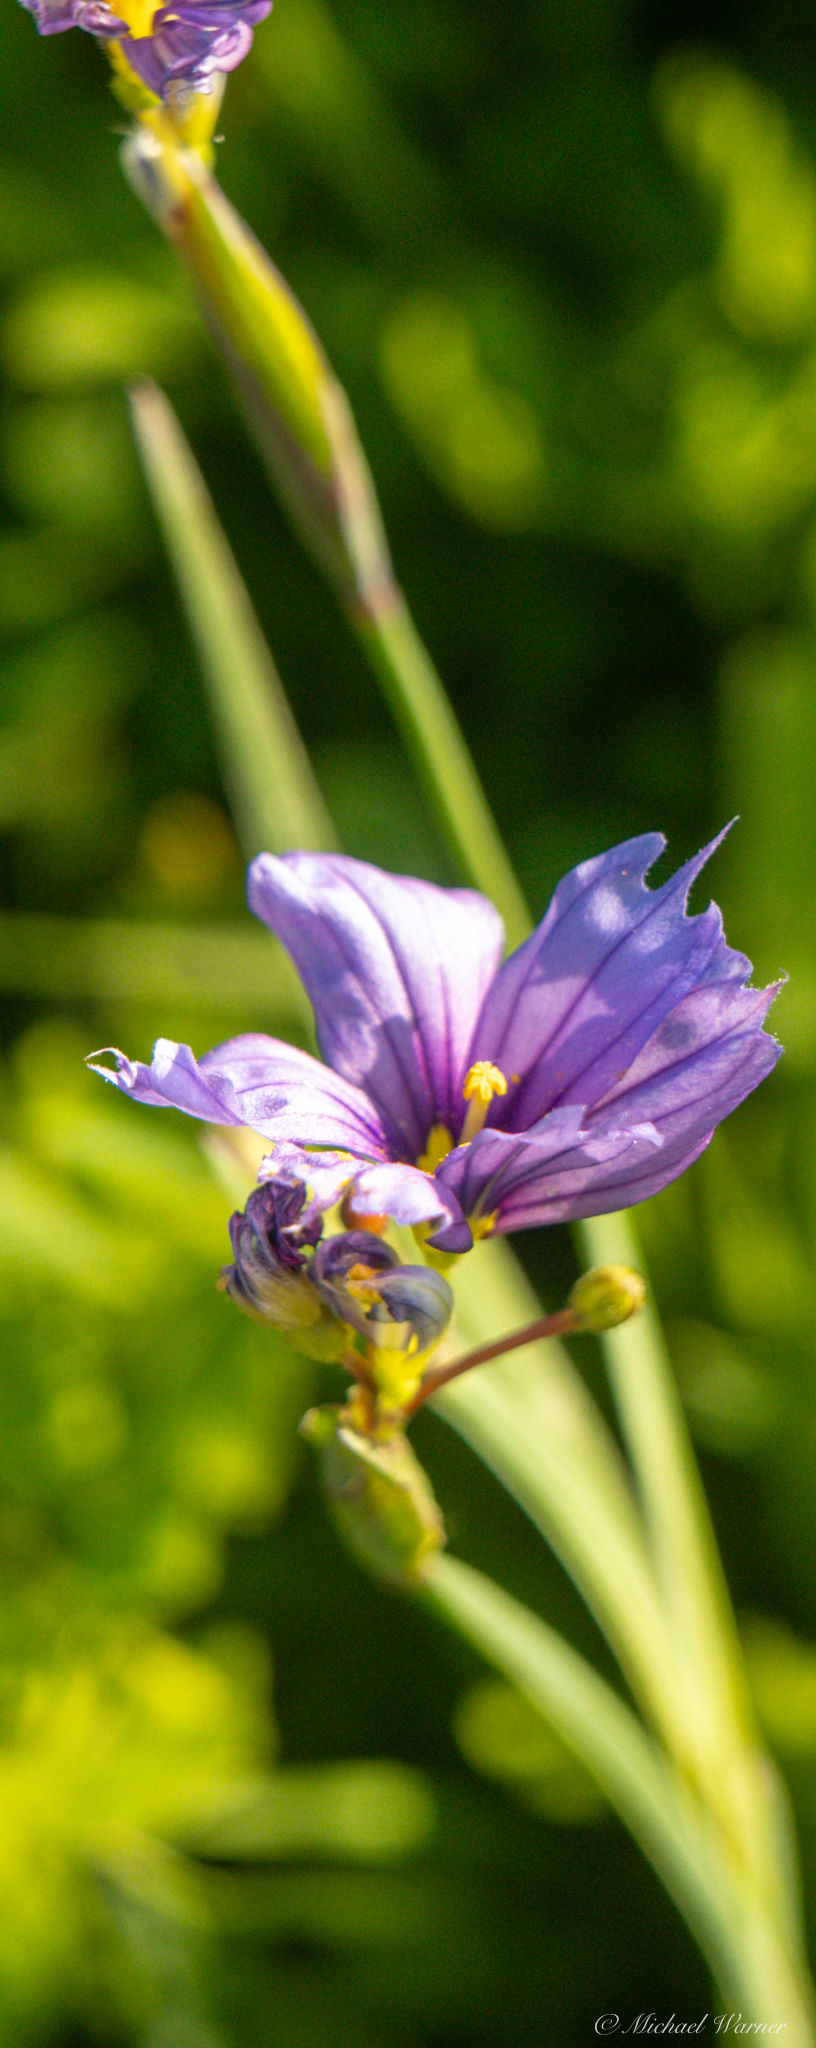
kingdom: Plantae
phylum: Tracheophyta
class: Liliopsida
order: Asparagales
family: Iridaceae
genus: Sisyrinchium
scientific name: Sisyrinchium bellum
